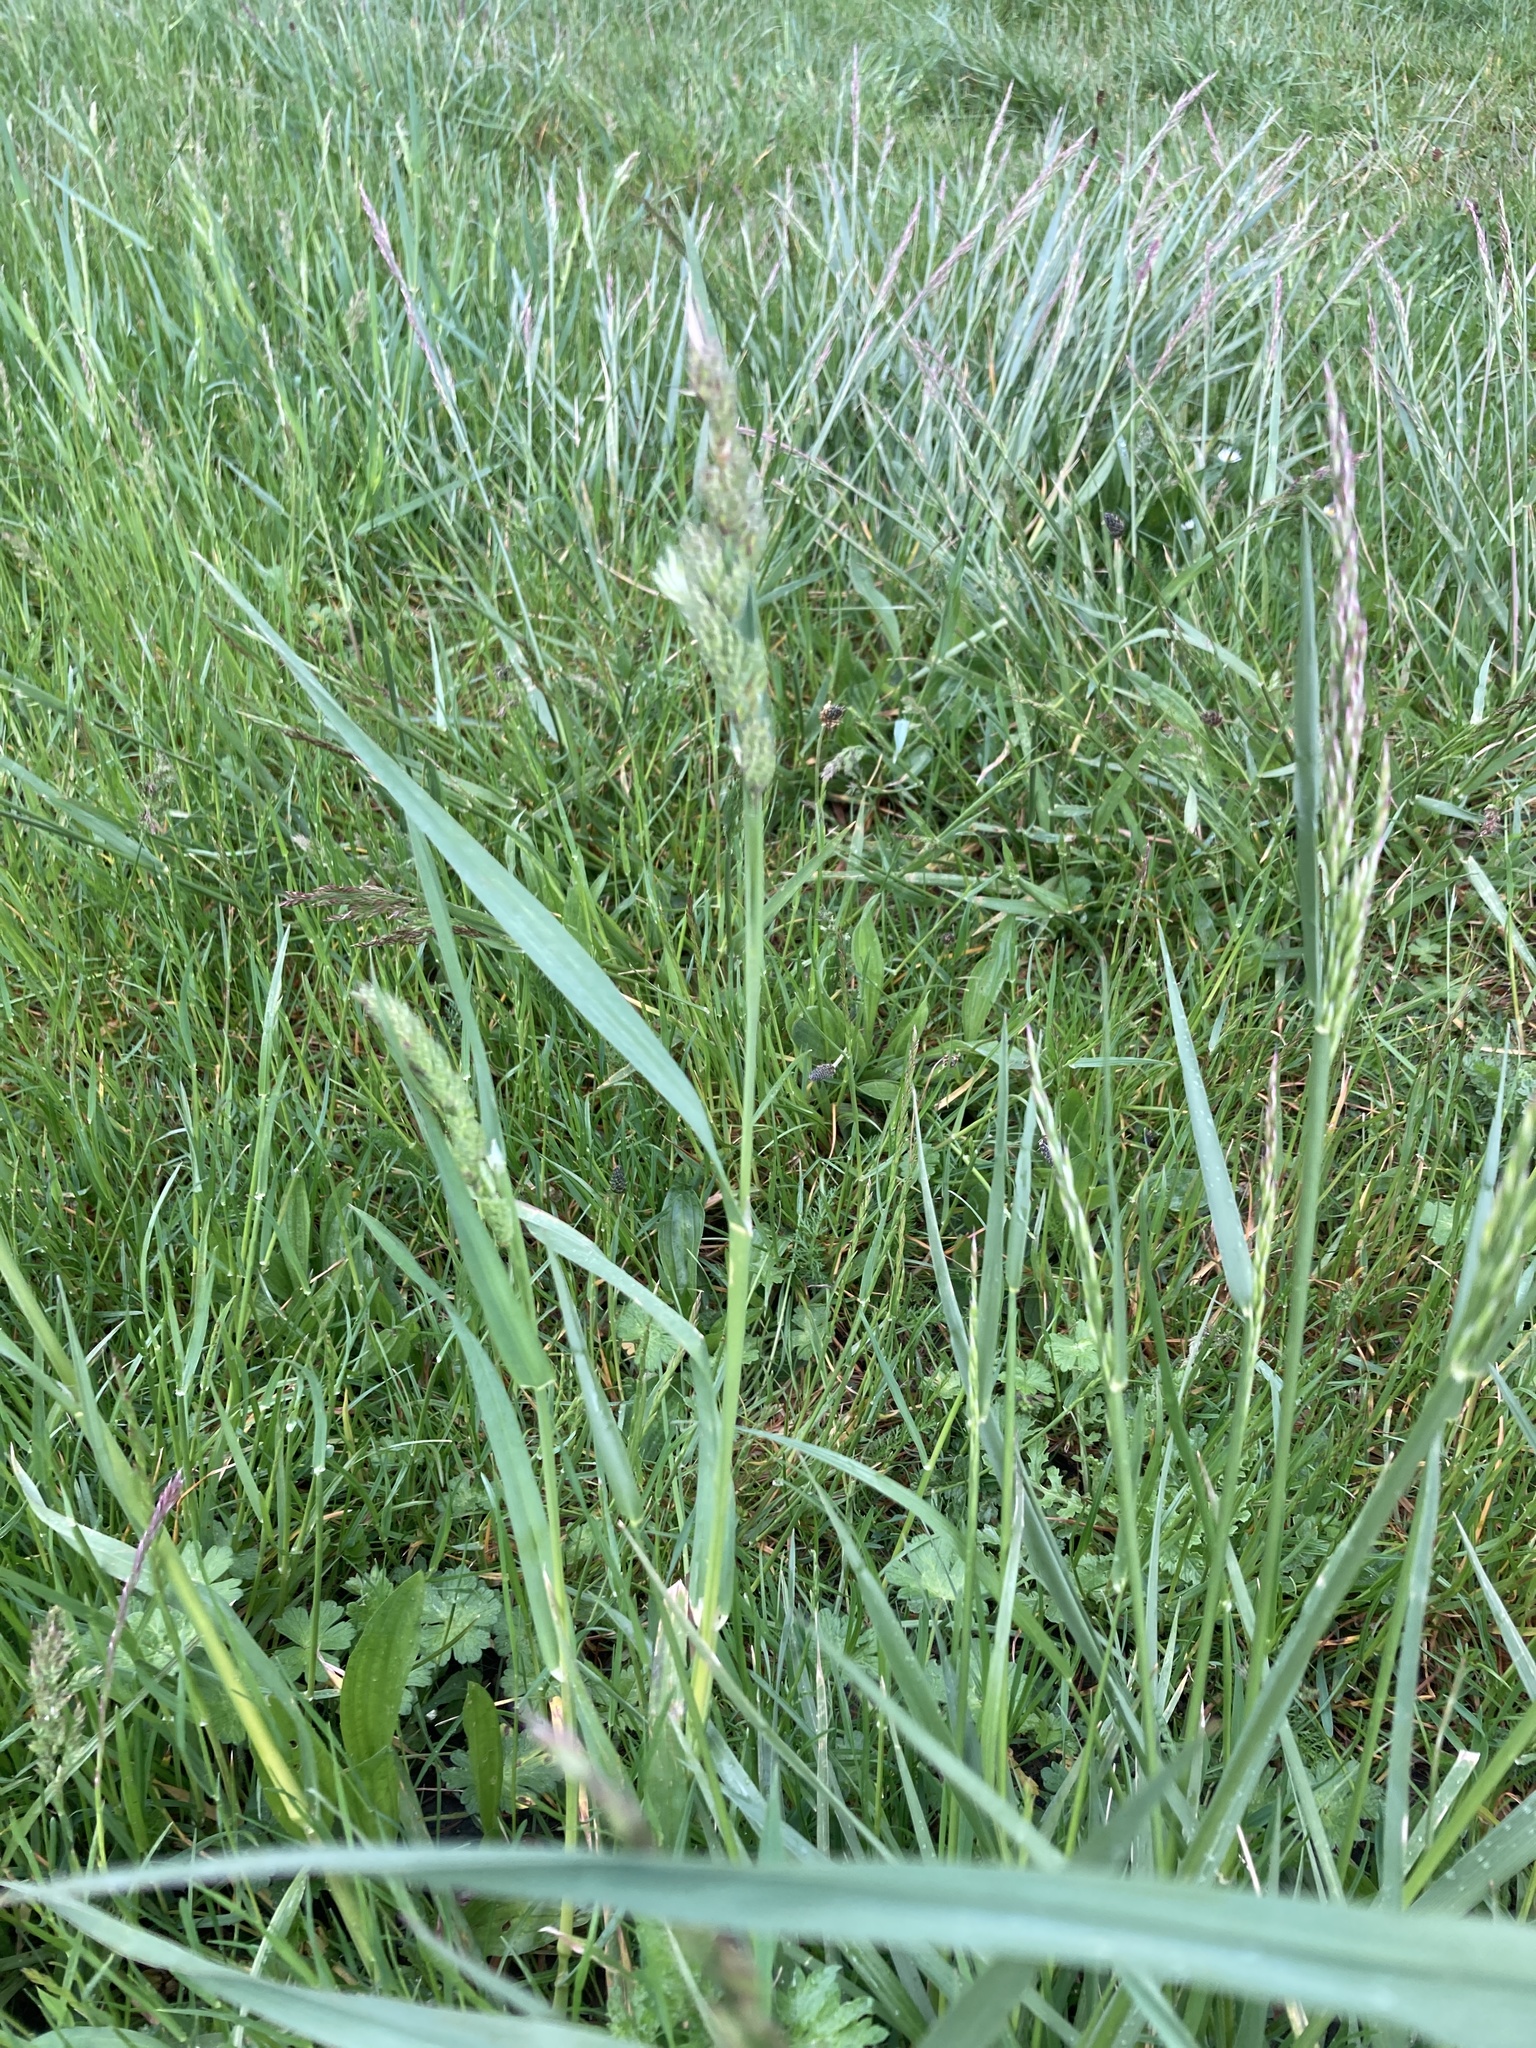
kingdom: Plantae
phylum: Tracheophyta
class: Liliopsida
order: Poales
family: Poaceae
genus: Dactylis
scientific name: Dactylis glomerata
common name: Orchardgrass
